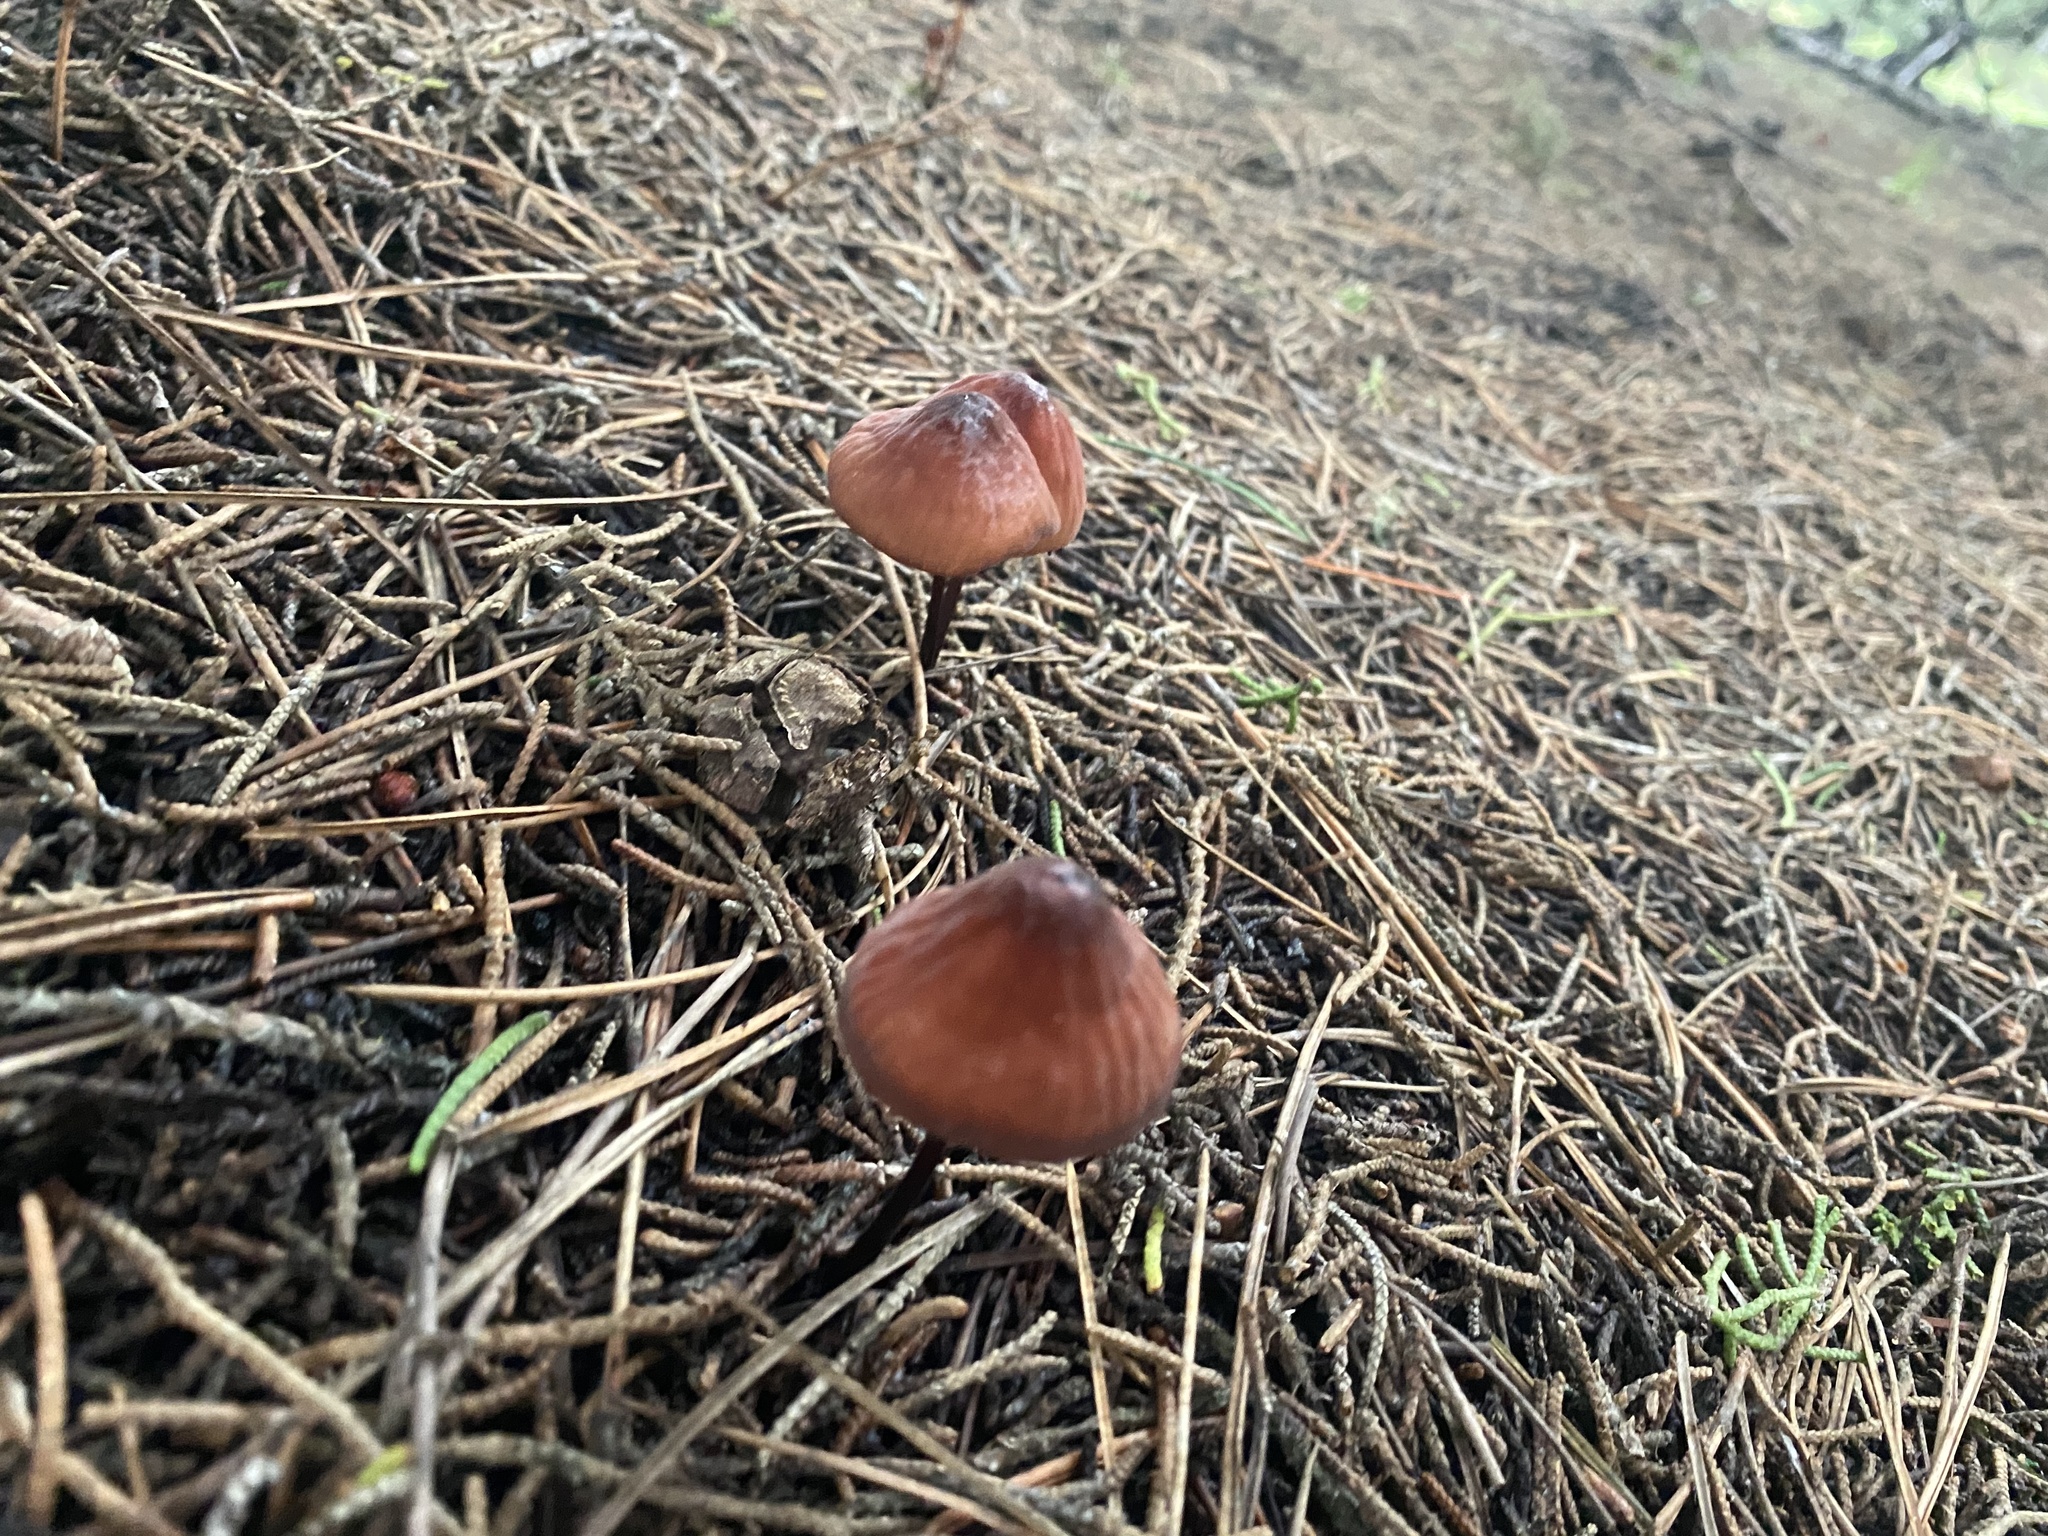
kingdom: Fungi
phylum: Basidiomycota
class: Agaricomycetes
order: Agaricales
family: Marasmiaceae
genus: Marasmius
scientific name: Marasmius plicatulus
